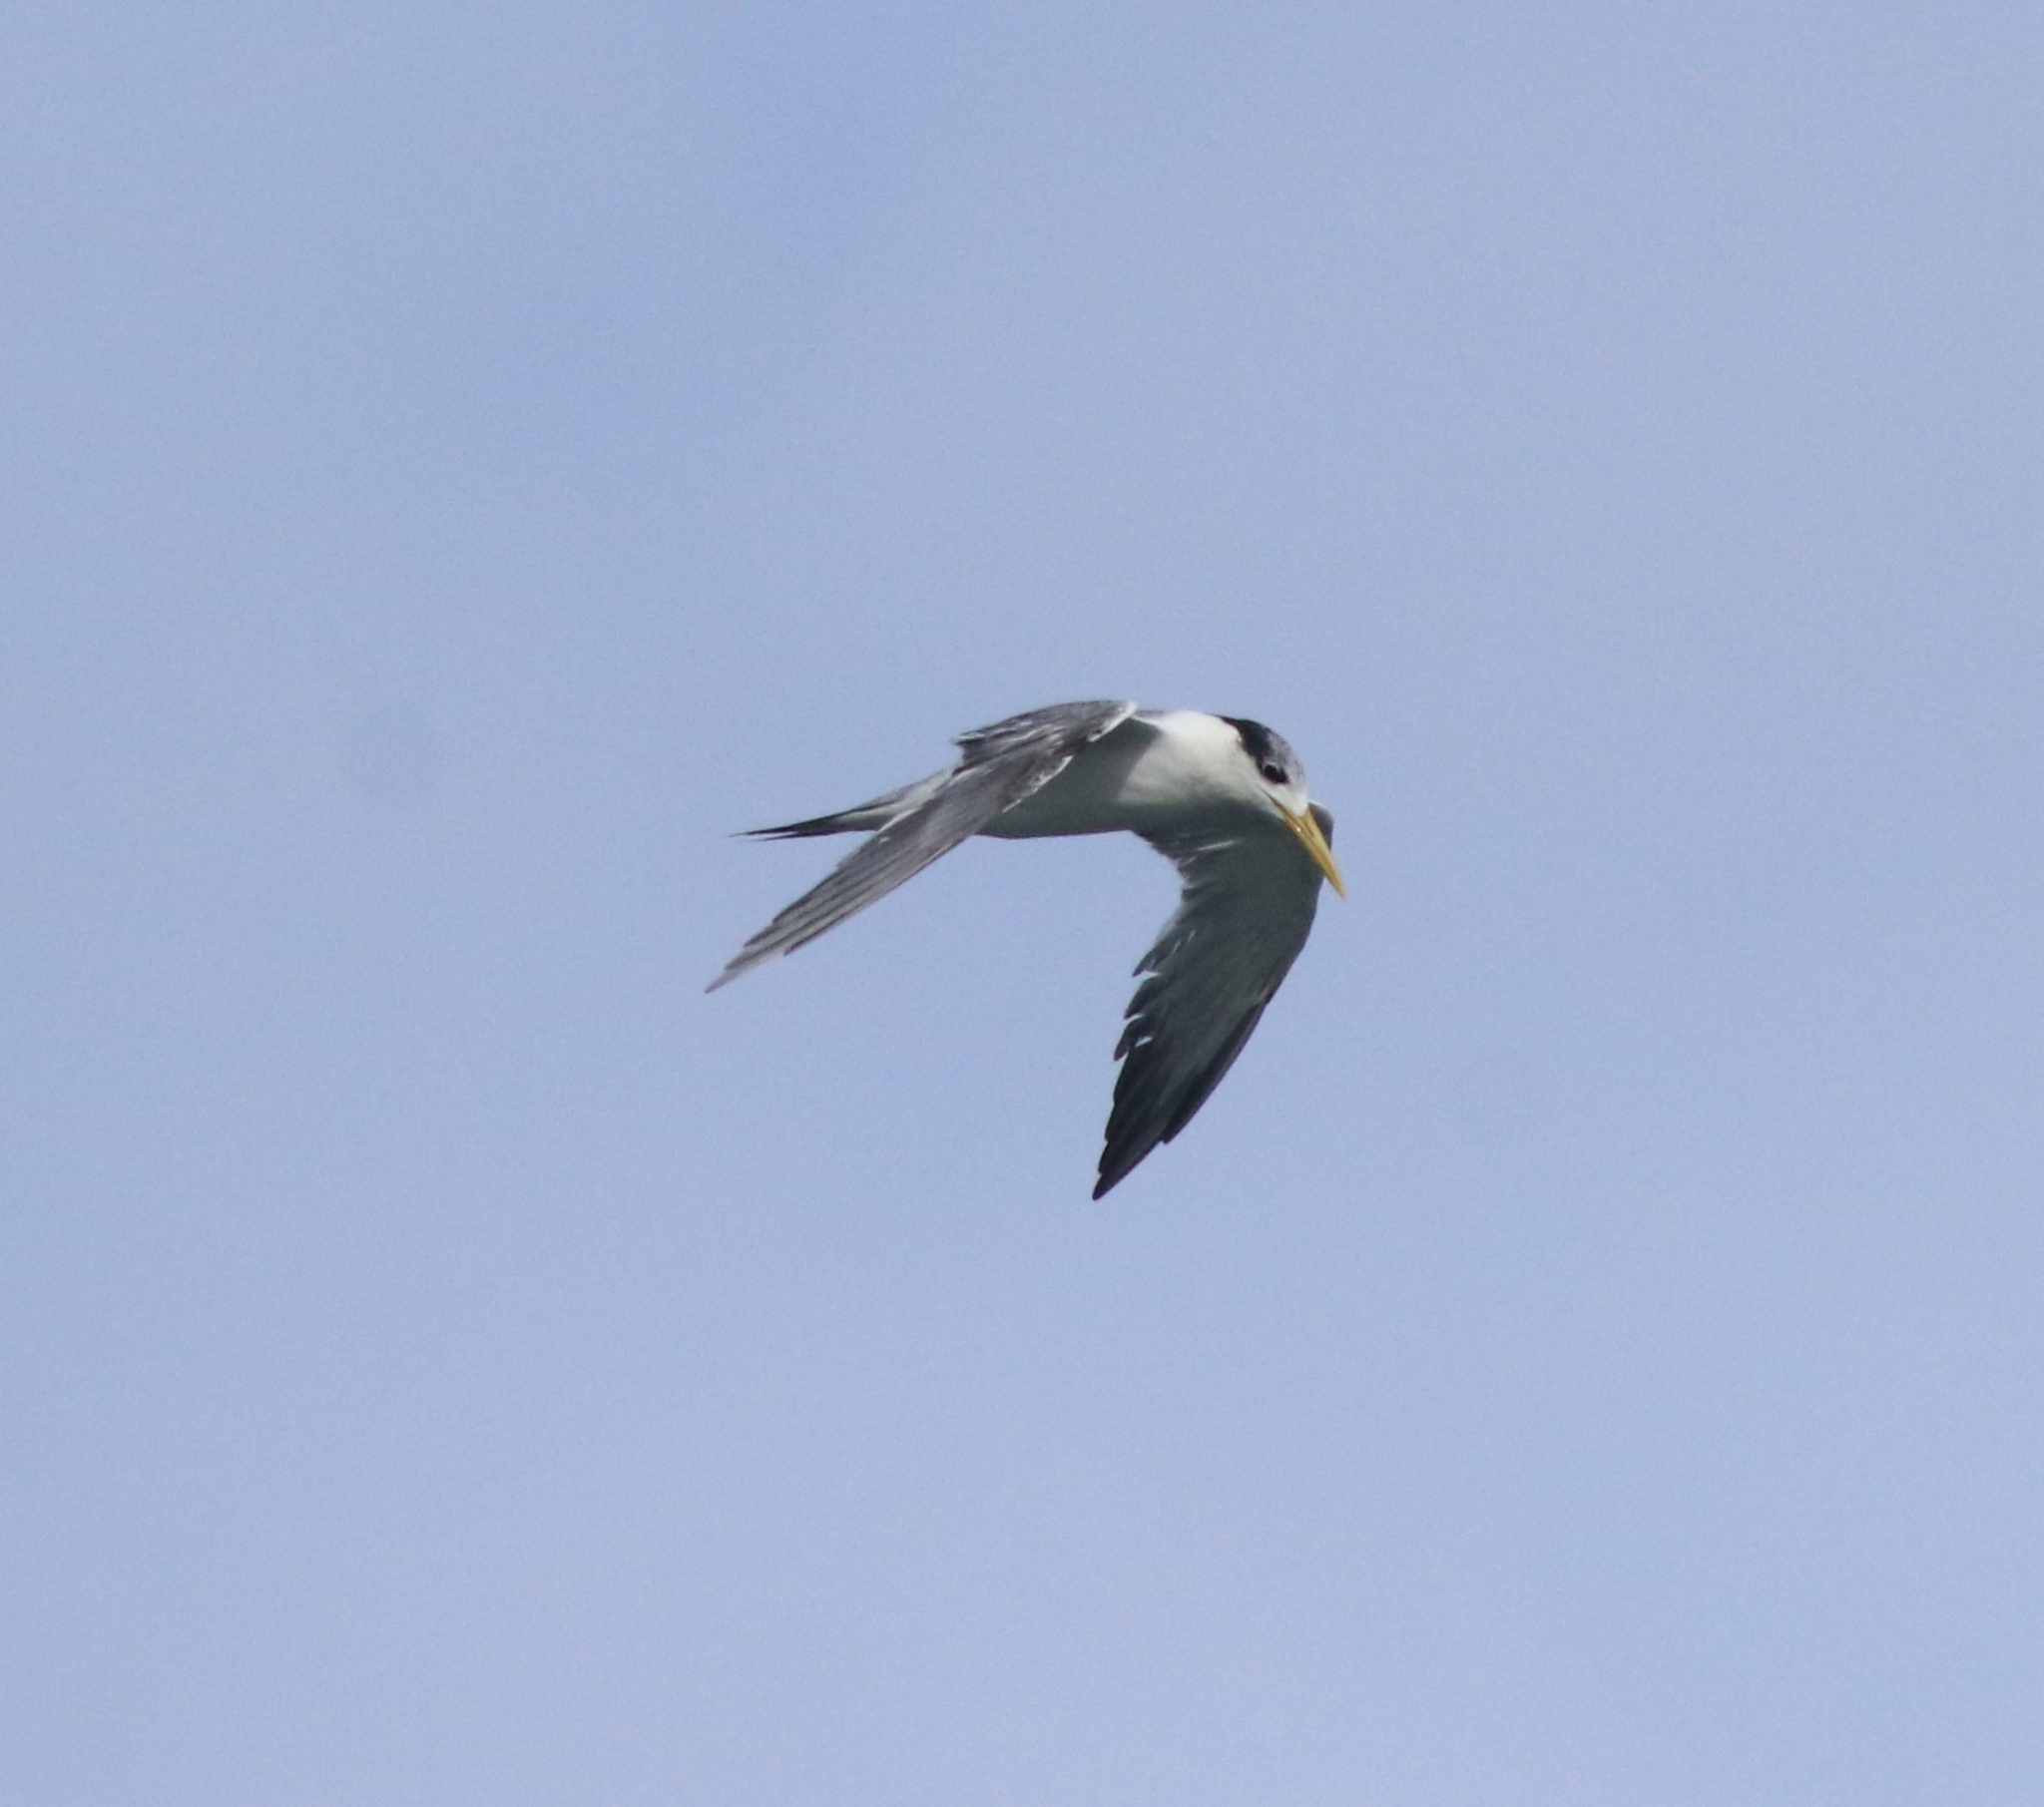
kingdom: Animalia
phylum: Chordata
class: Aves
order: Charadriiformes
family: Laridae
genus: Thalasseus
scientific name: Thalasseus bergii
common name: Greater crested tern
